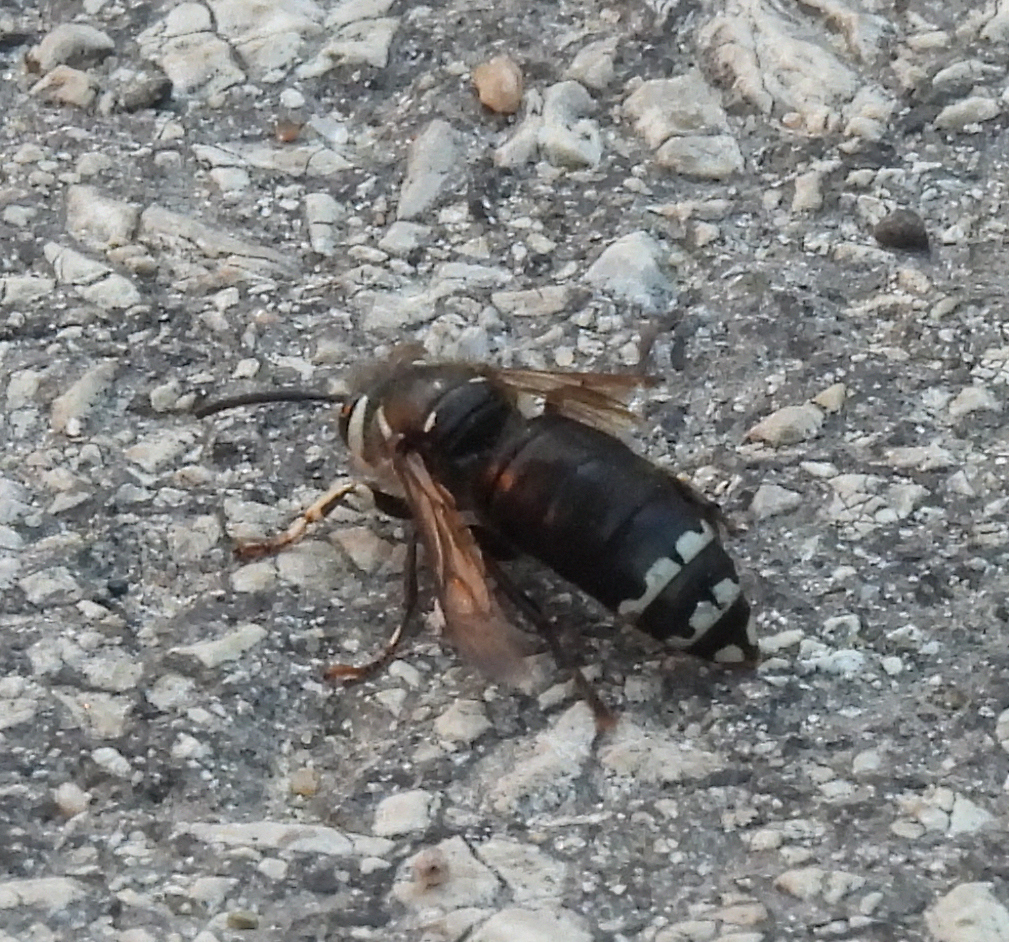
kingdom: Animalia
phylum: Arthropoda
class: Insecta
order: Hymenoptera
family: Vespidae
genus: Dolichovespula
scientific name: Dolichovespula maculata
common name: Bald-faced hornet
